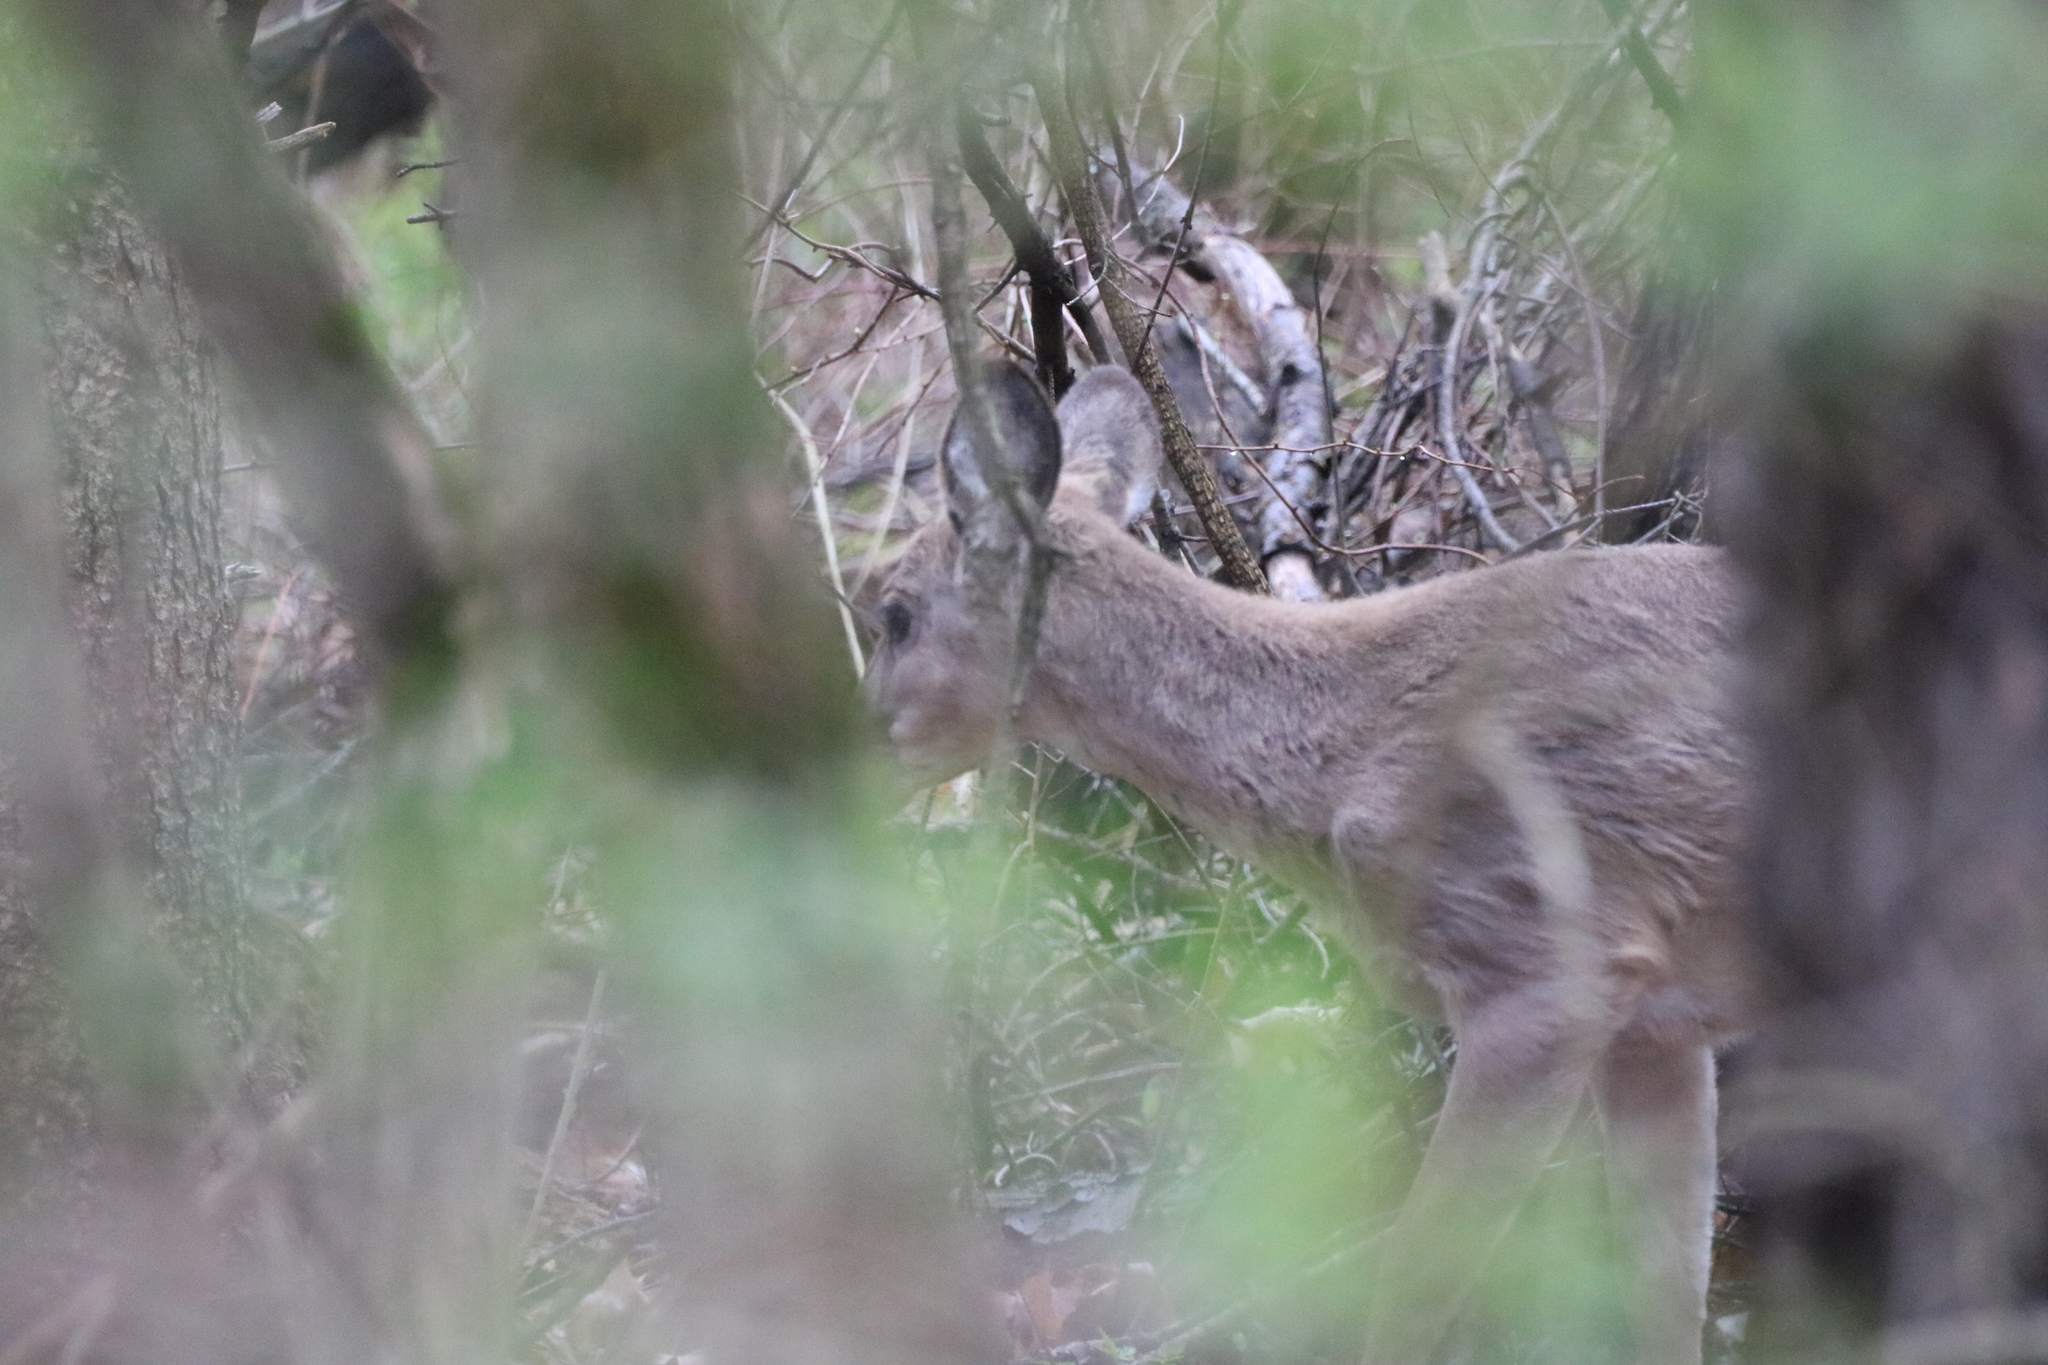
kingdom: Animalia
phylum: Chordata
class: Mammalia
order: Artiodactyla
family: Cervidae
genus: Odocoileus
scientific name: Odocoileus virginianus
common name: White-tailed deer
